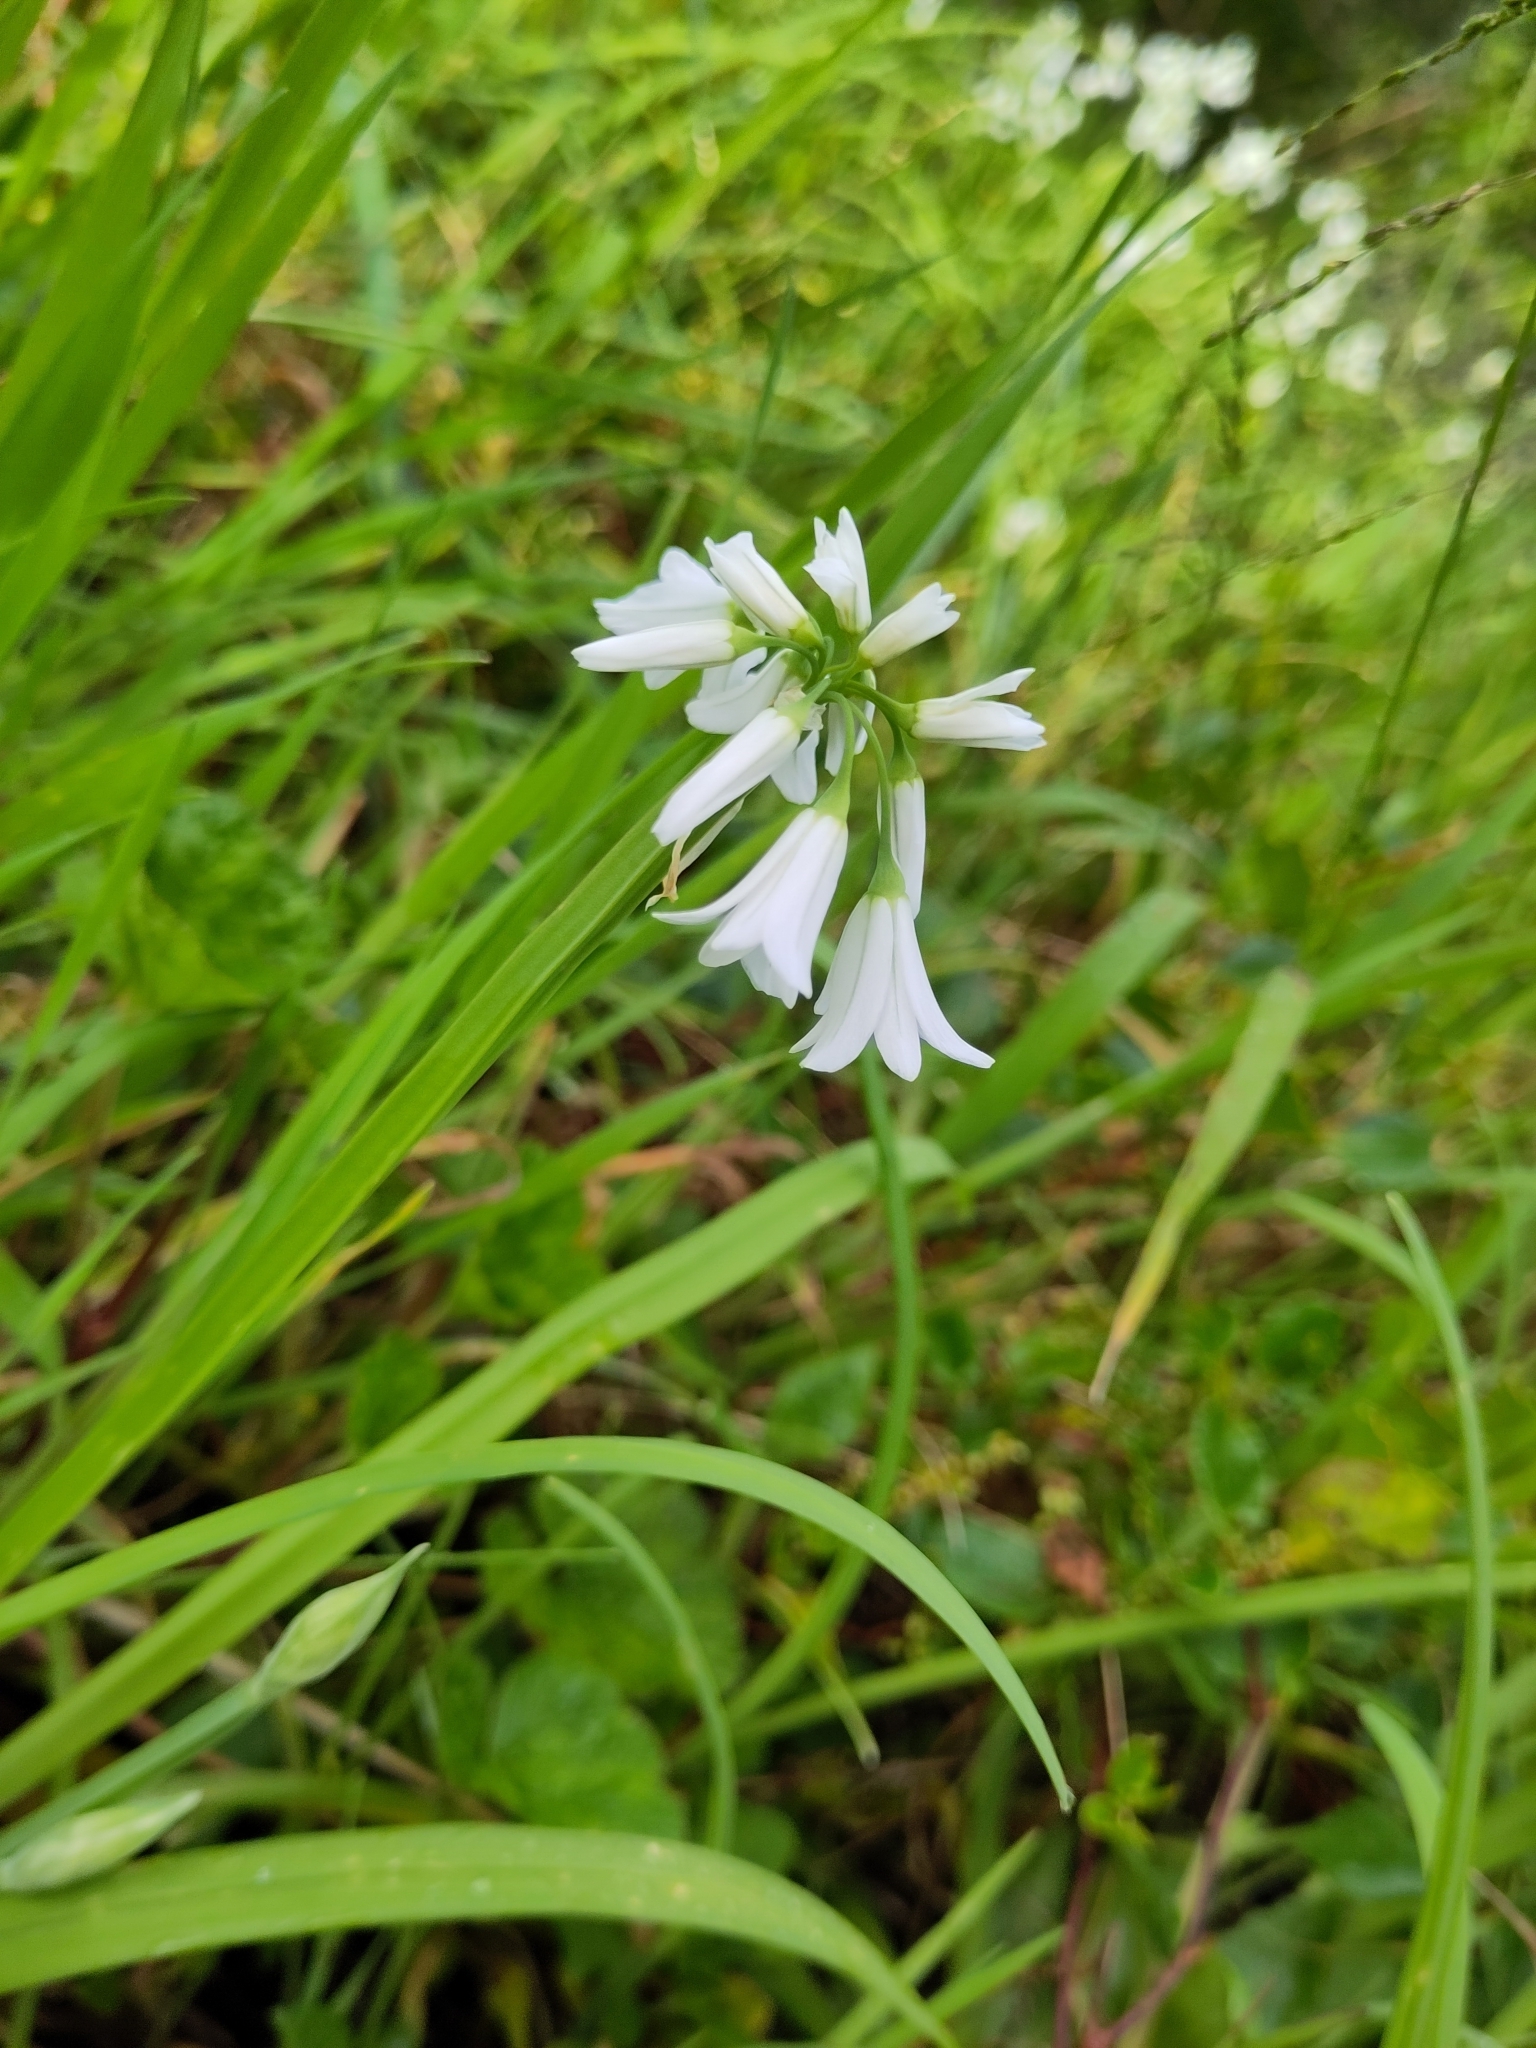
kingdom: Plantae
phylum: Tracheophyta
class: Liliopsida
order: Asparagales
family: Amaryllidaceae
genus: Allium
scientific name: Allium triquetrum
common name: Three-cornered garlic
